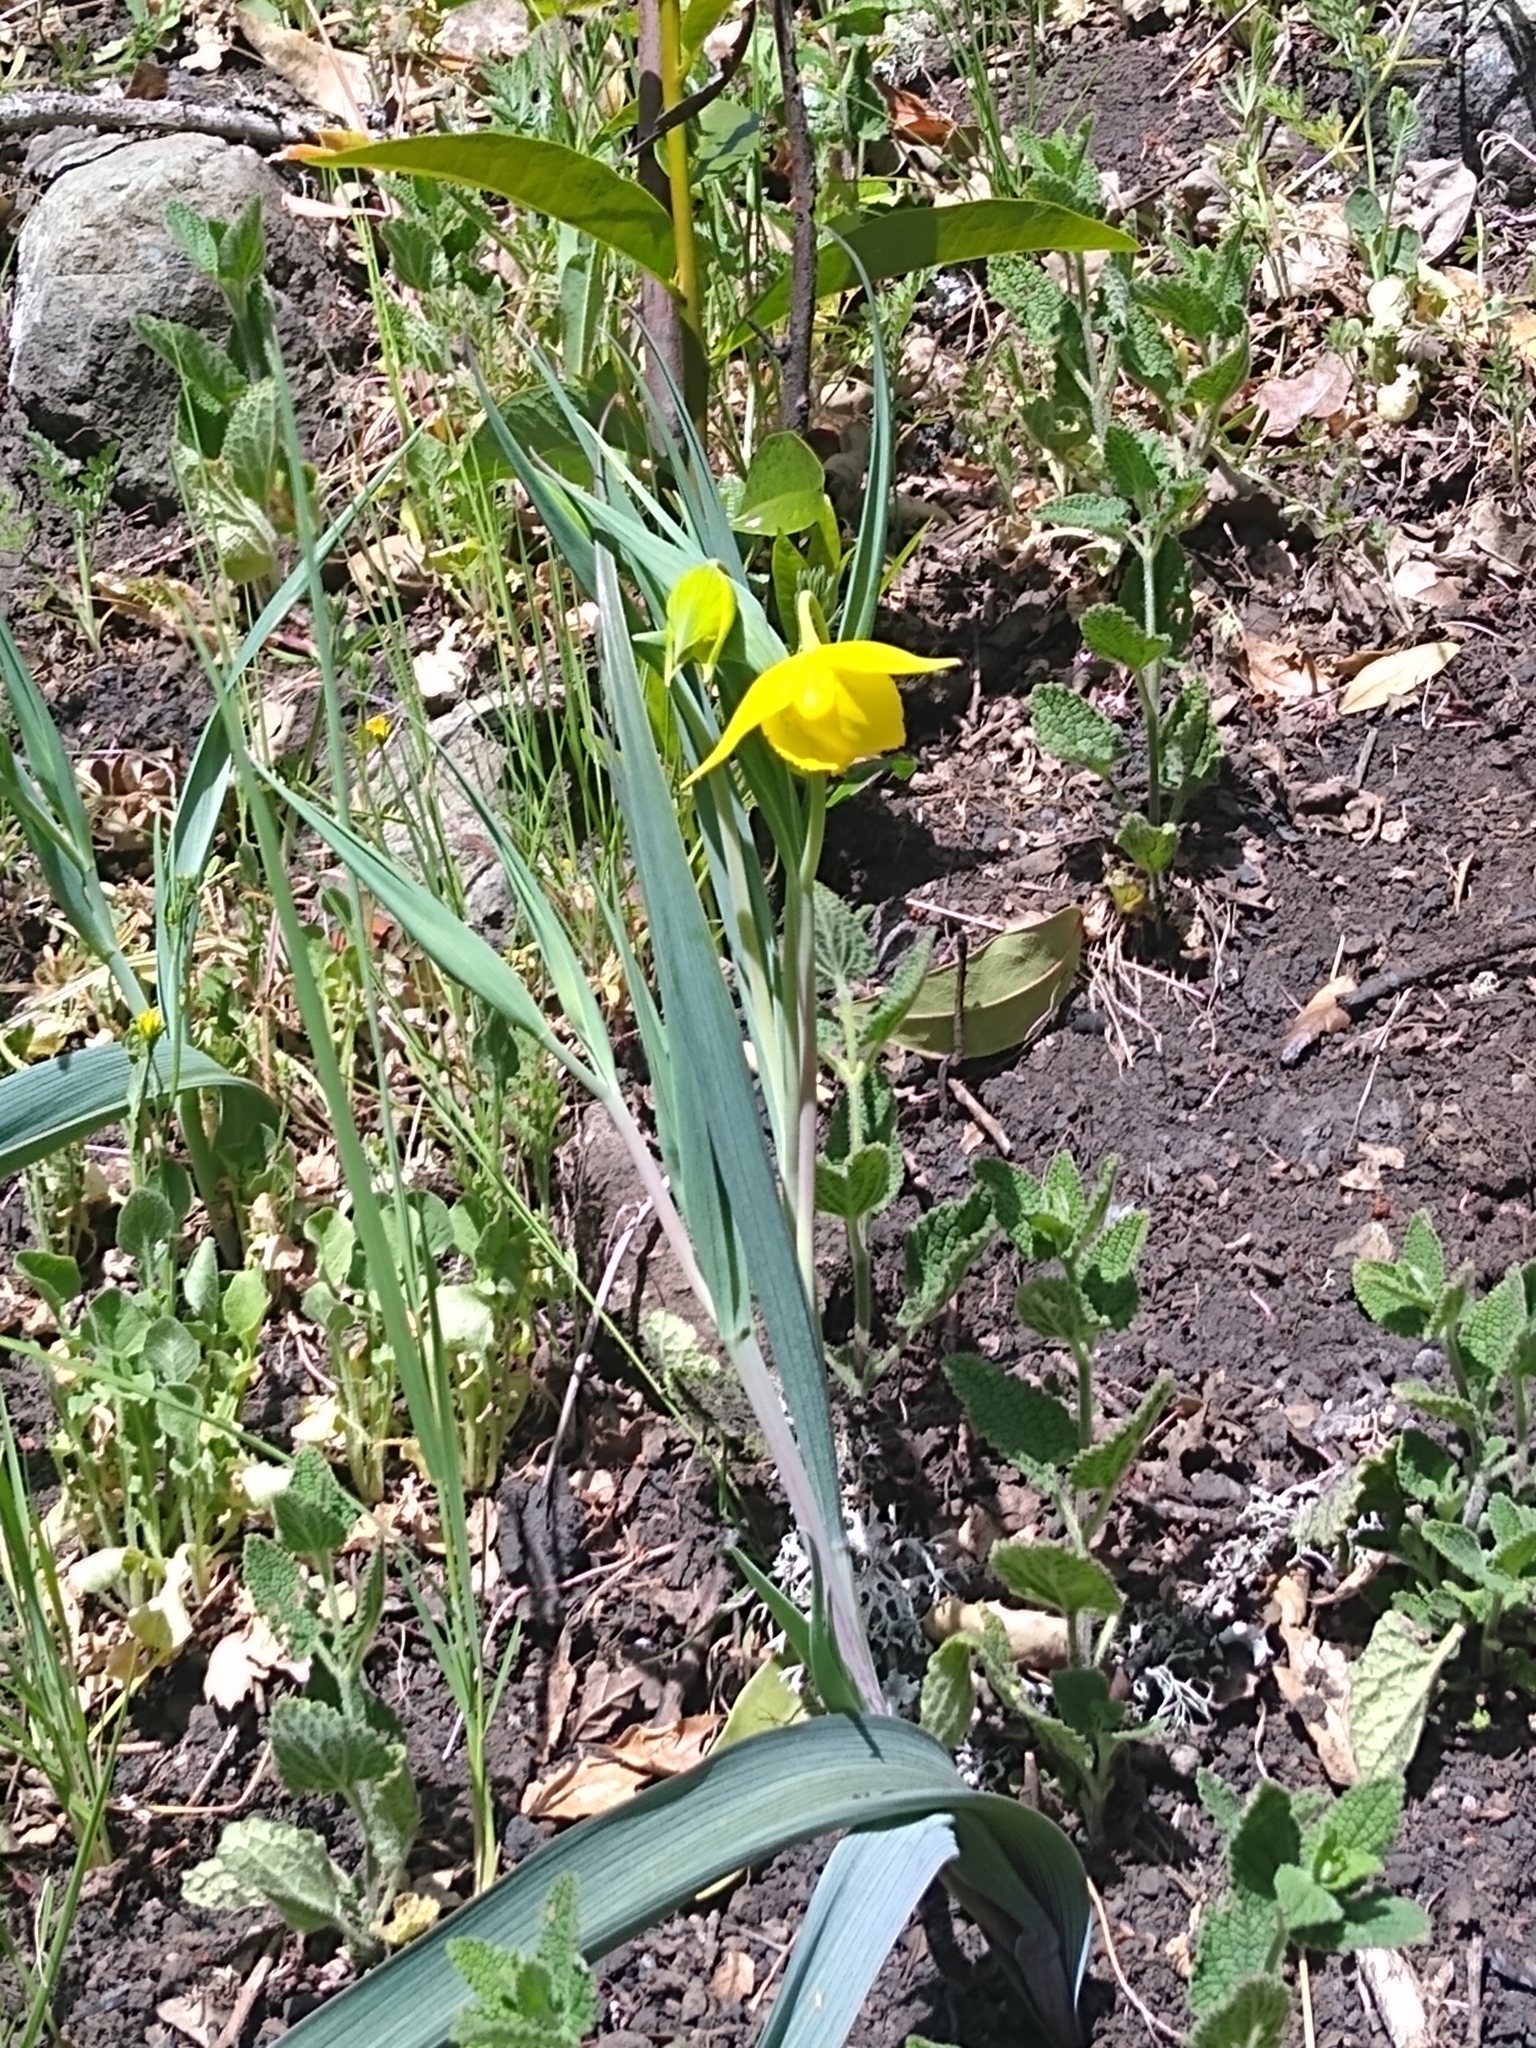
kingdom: Plantae
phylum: Tracheophyta
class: Liliopsida
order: Liliales
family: Liliaceae
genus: Calochortus
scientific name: Calochortus amabilis
